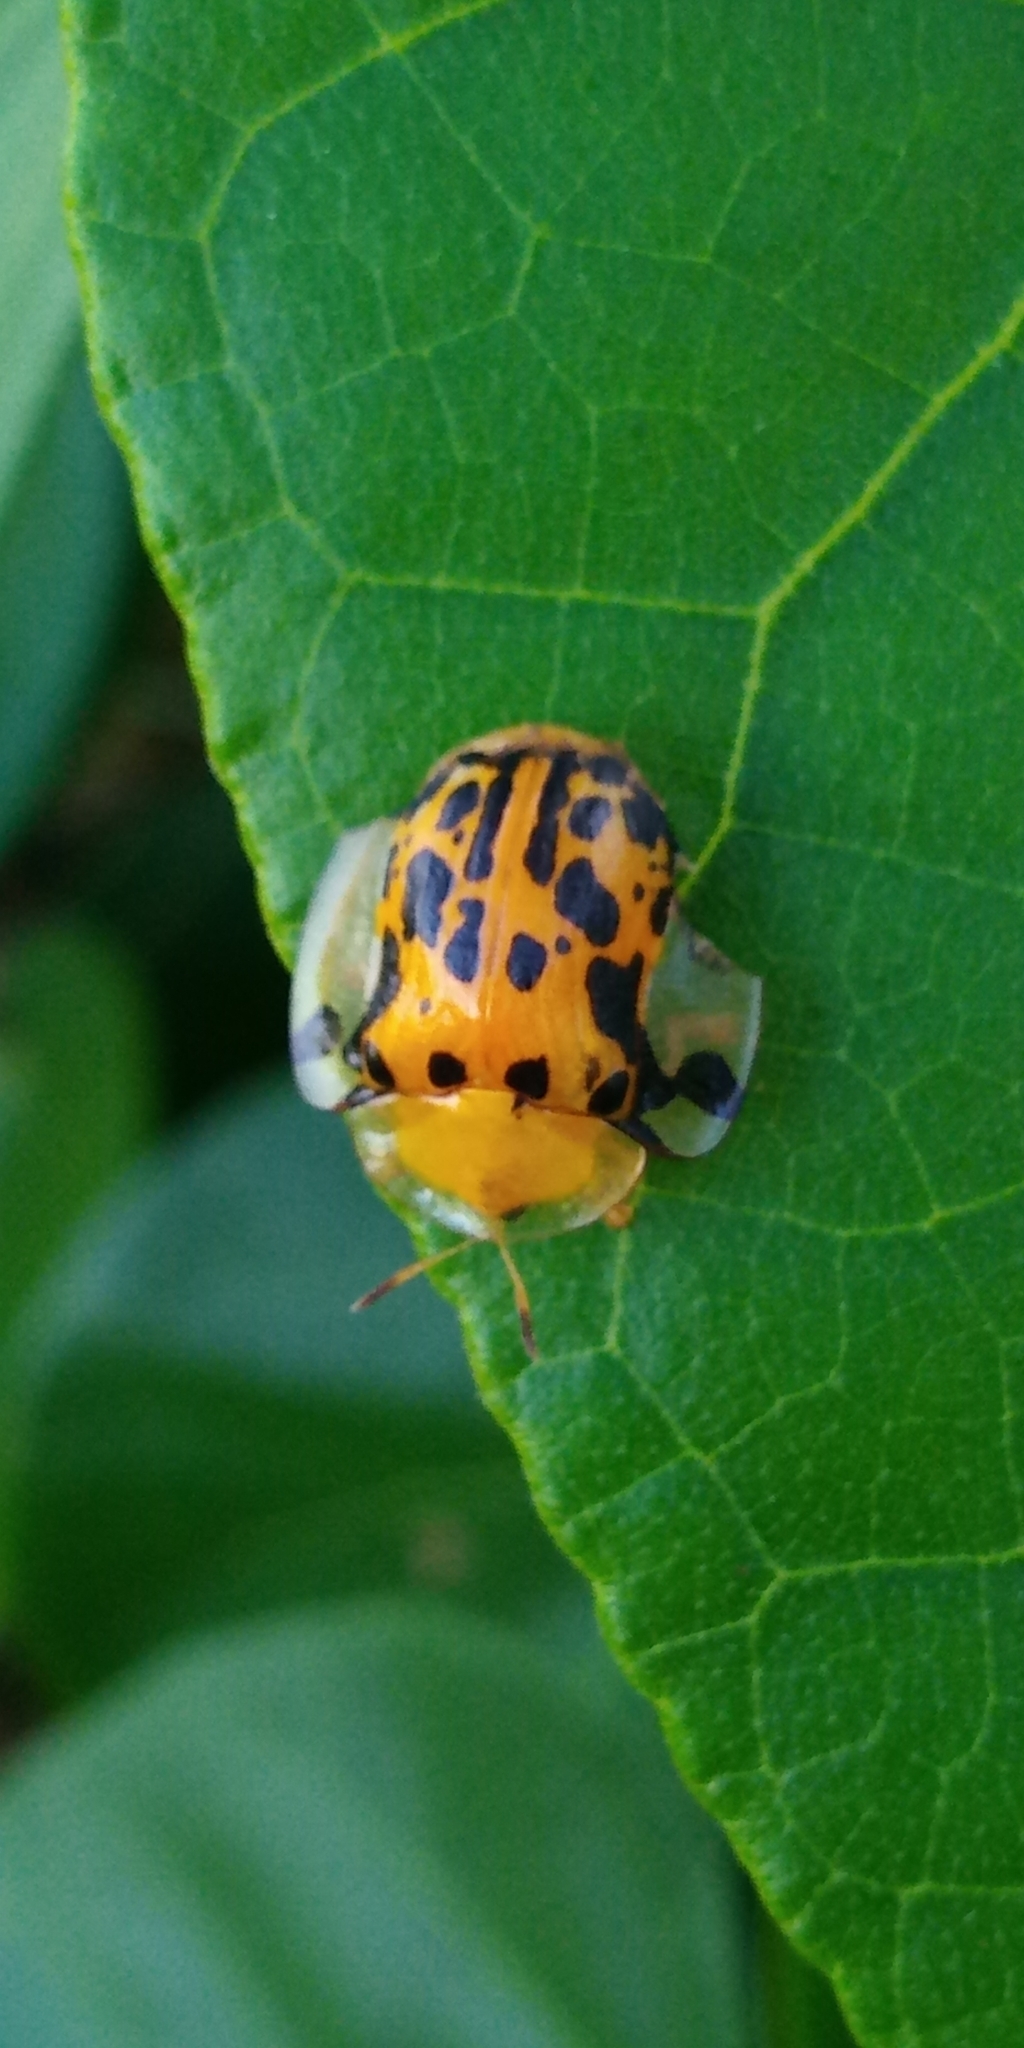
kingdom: Animalia
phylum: Arthropoda
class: Insecta
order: Coleoptera
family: Chrysomelidae
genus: Aspidimorpha
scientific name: Aspidimorpha miliaris
